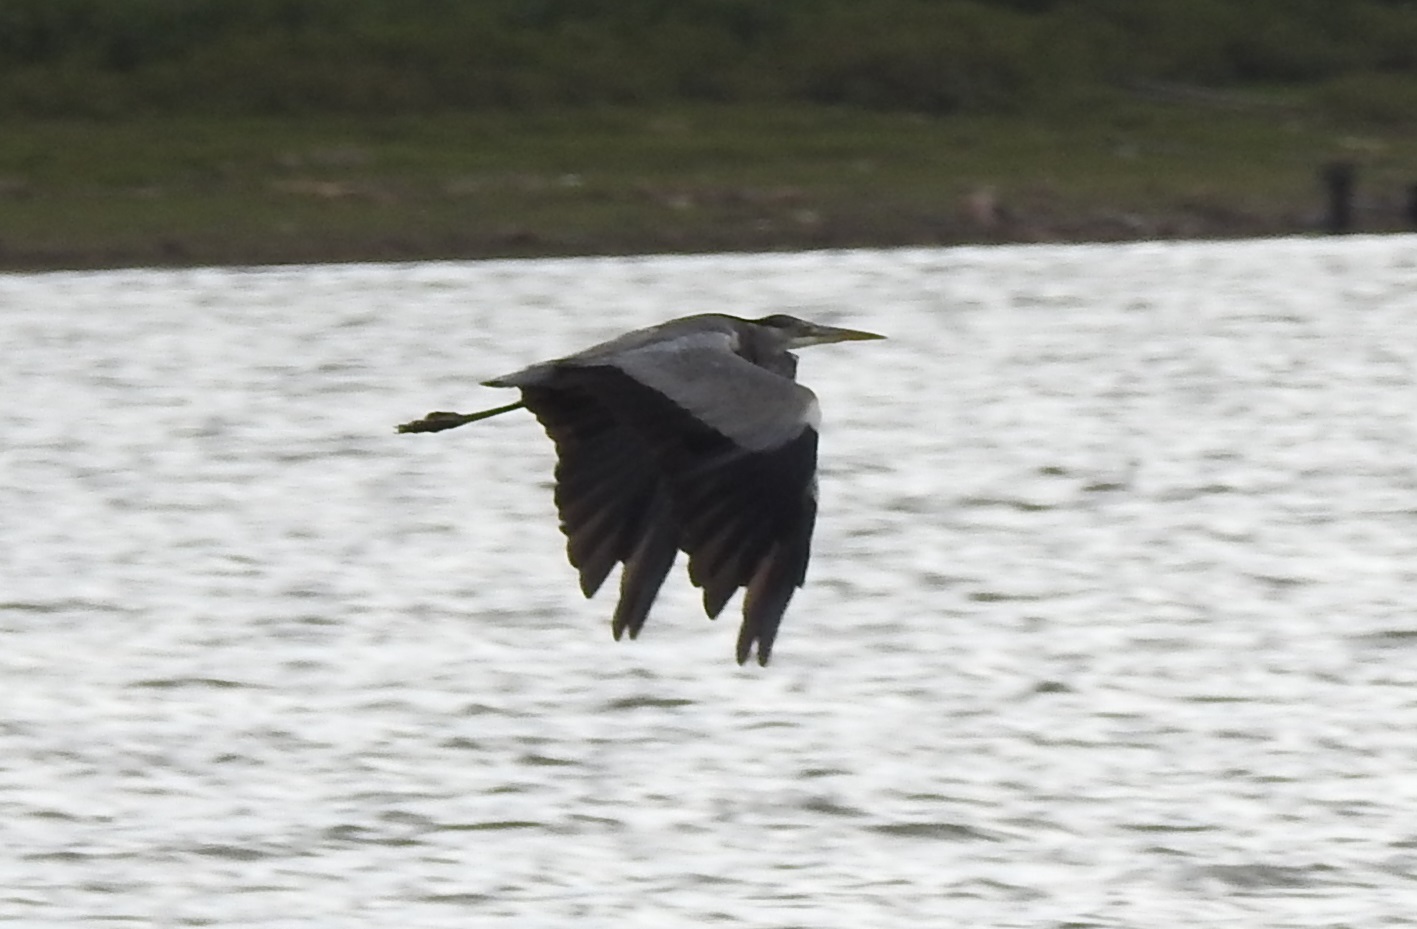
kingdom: Animalia
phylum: Chordata
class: Aves
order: Pelecaniformes
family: Ardeidae
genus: Ardea
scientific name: Ardea cinerea
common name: Grey heron
